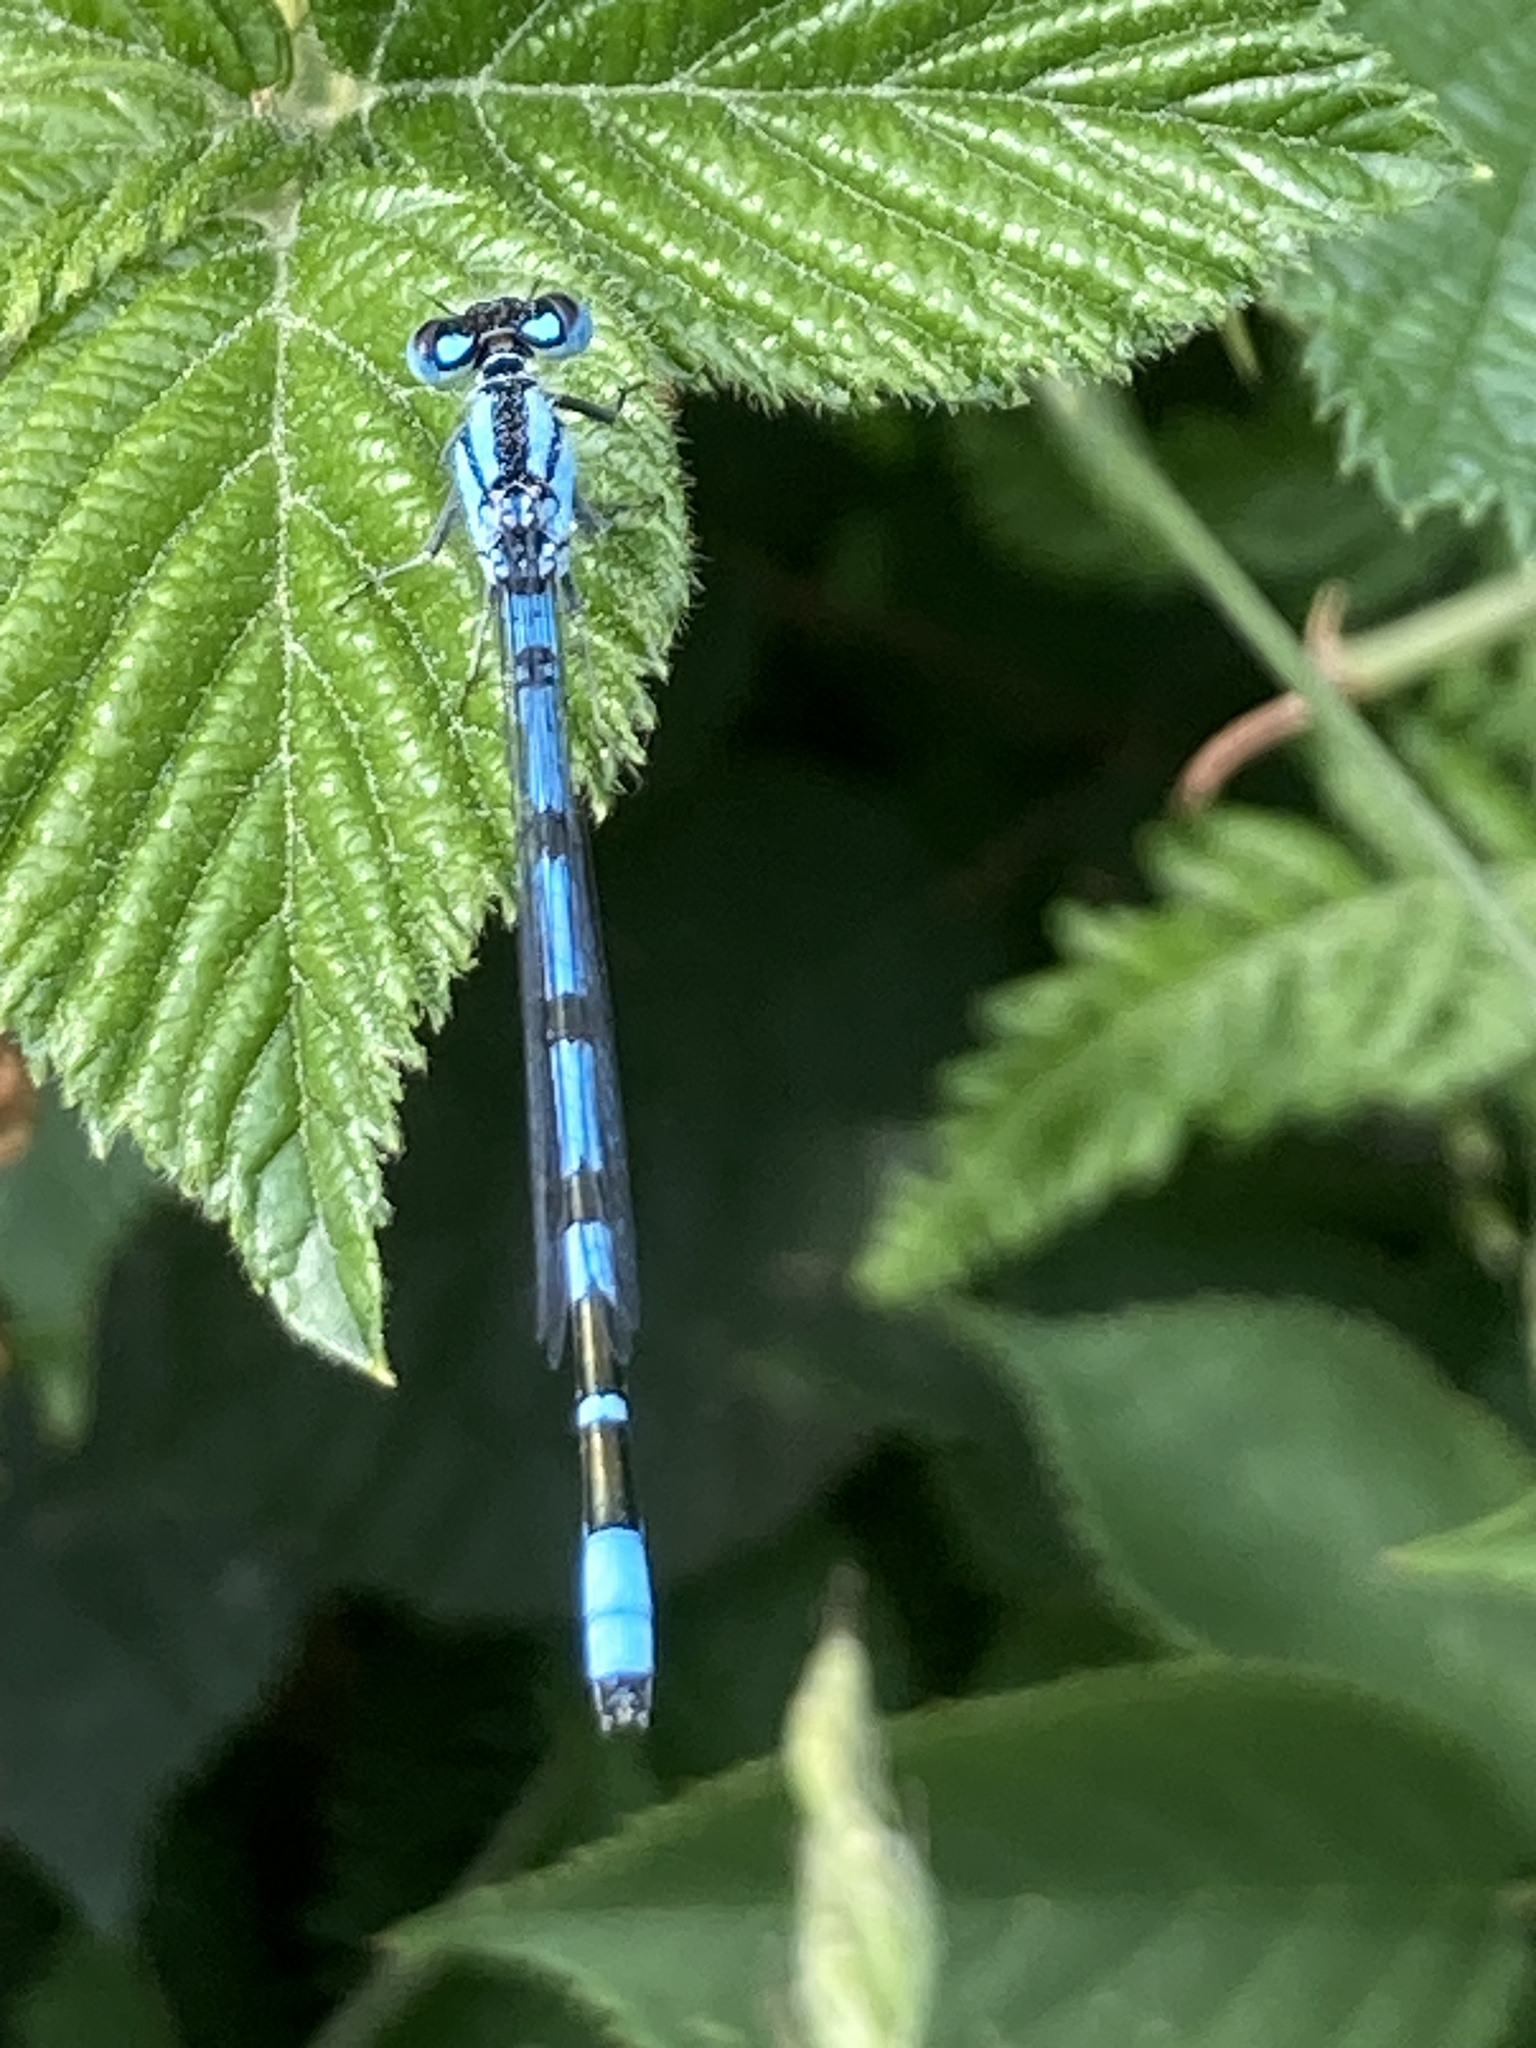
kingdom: Animalia
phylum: Arthropoda
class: Insecta
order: Odonata
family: Coenagrionidae
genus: Enallagma
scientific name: Enallagma cyathigerum
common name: Common blue damselfly
